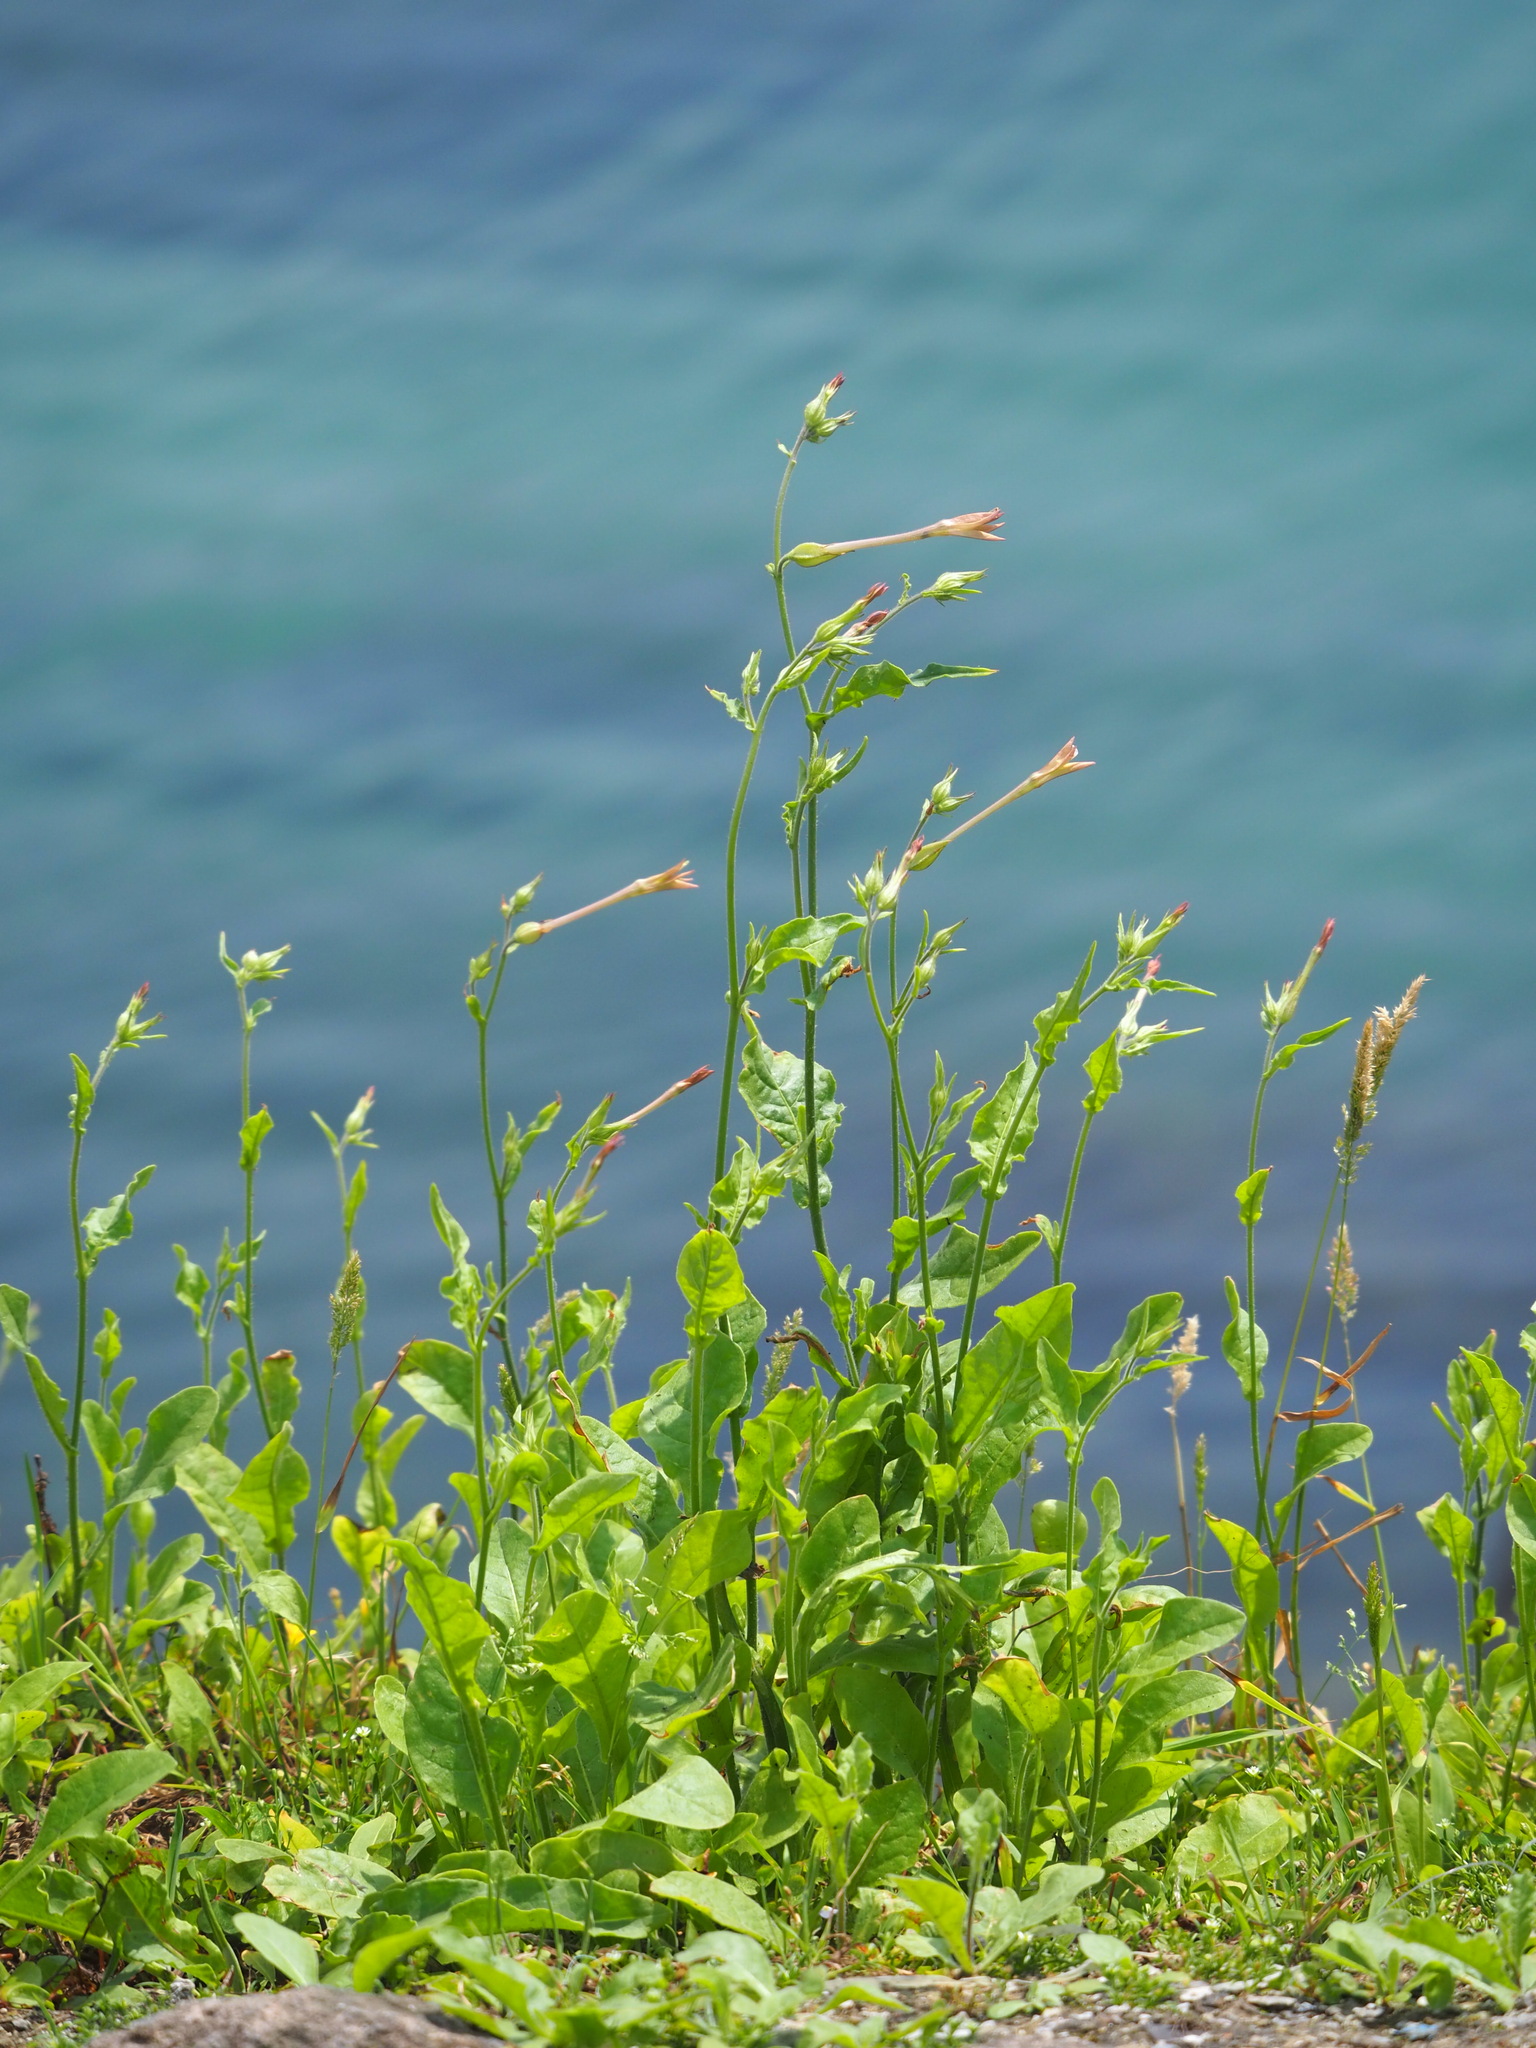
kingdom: Plantae
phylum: Tracheophyta
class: Magnoliopsida
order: Solanales
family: Solanaceae
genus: Nicotiana
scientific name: Nicotiana plumbaginifolia
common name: Tex-mex tobacco
